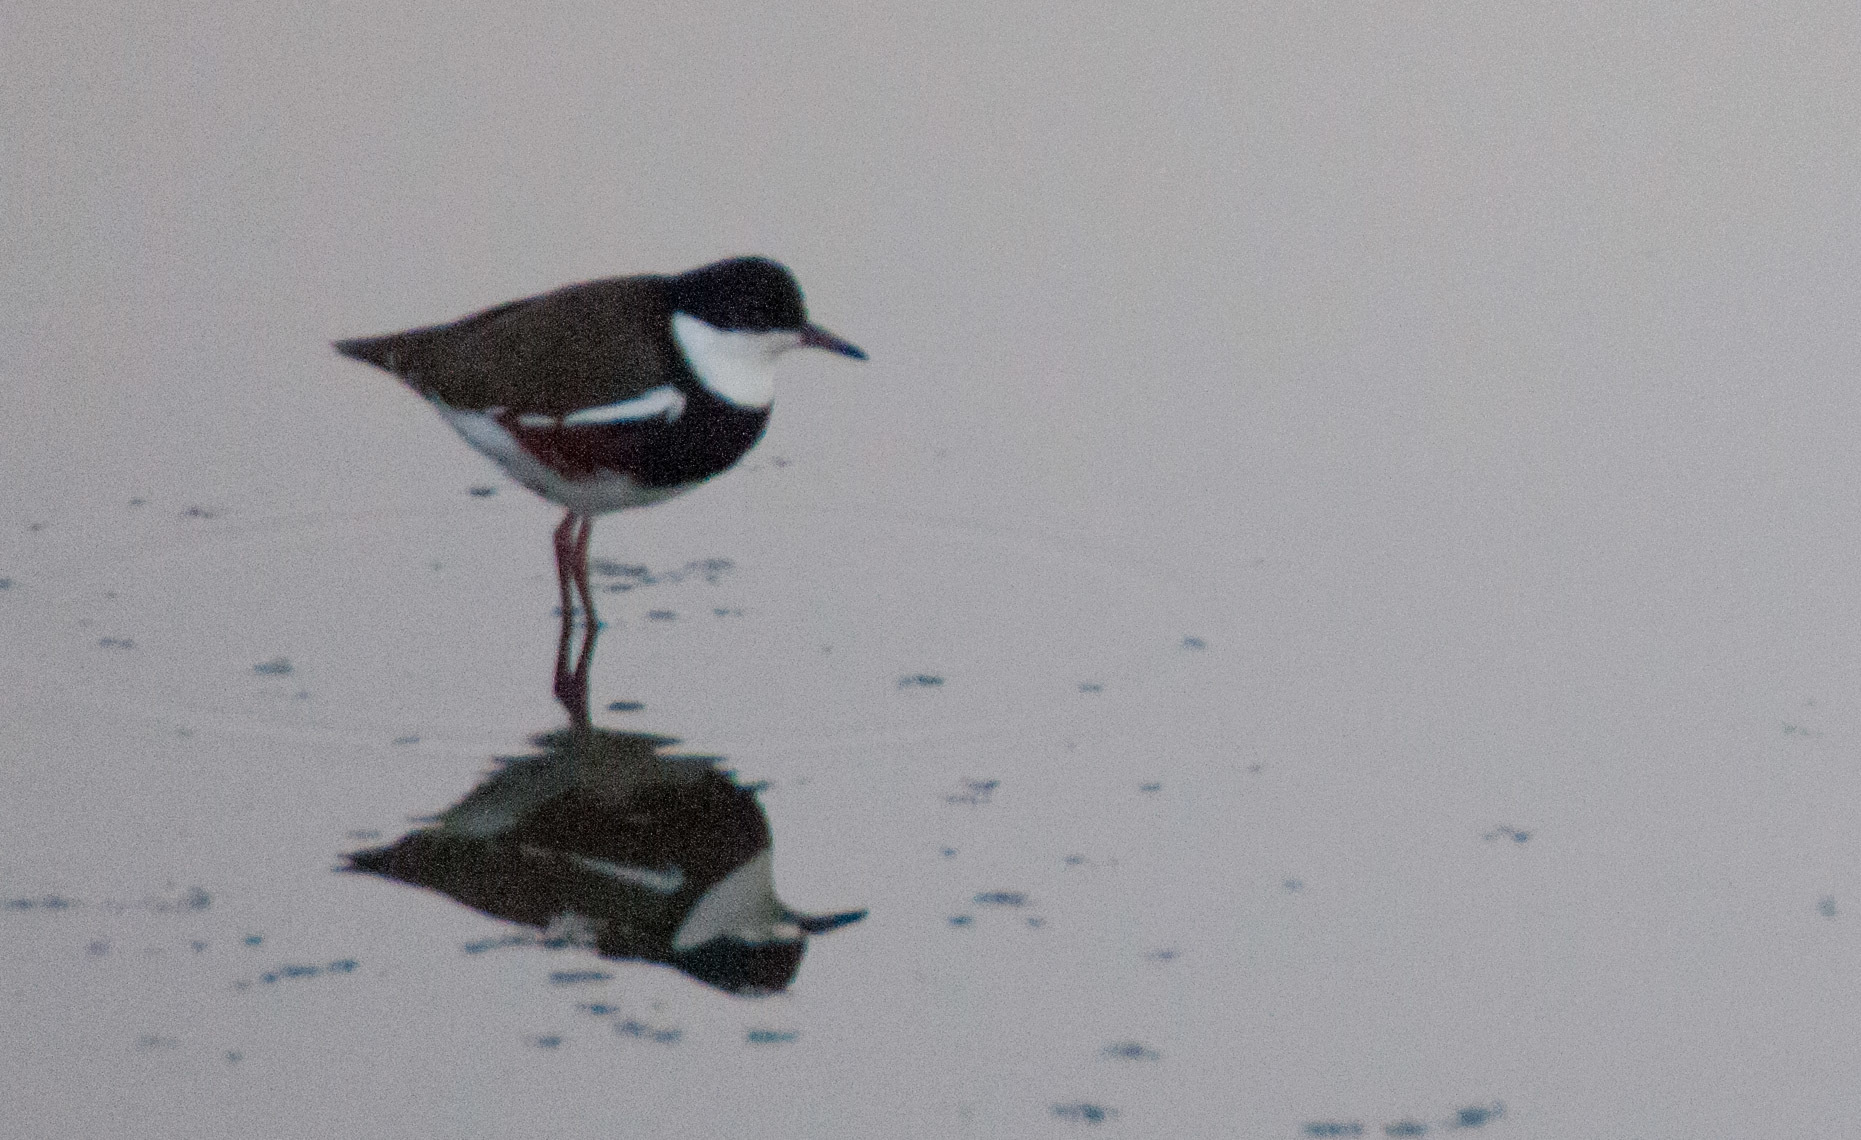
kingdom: Animalia
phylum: Chordata
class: Aves
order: Charadriiformes
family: Charadriidae
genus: Erythrogonys
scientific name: Erythrogonys cinctus
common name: Red-kneed dotterel
